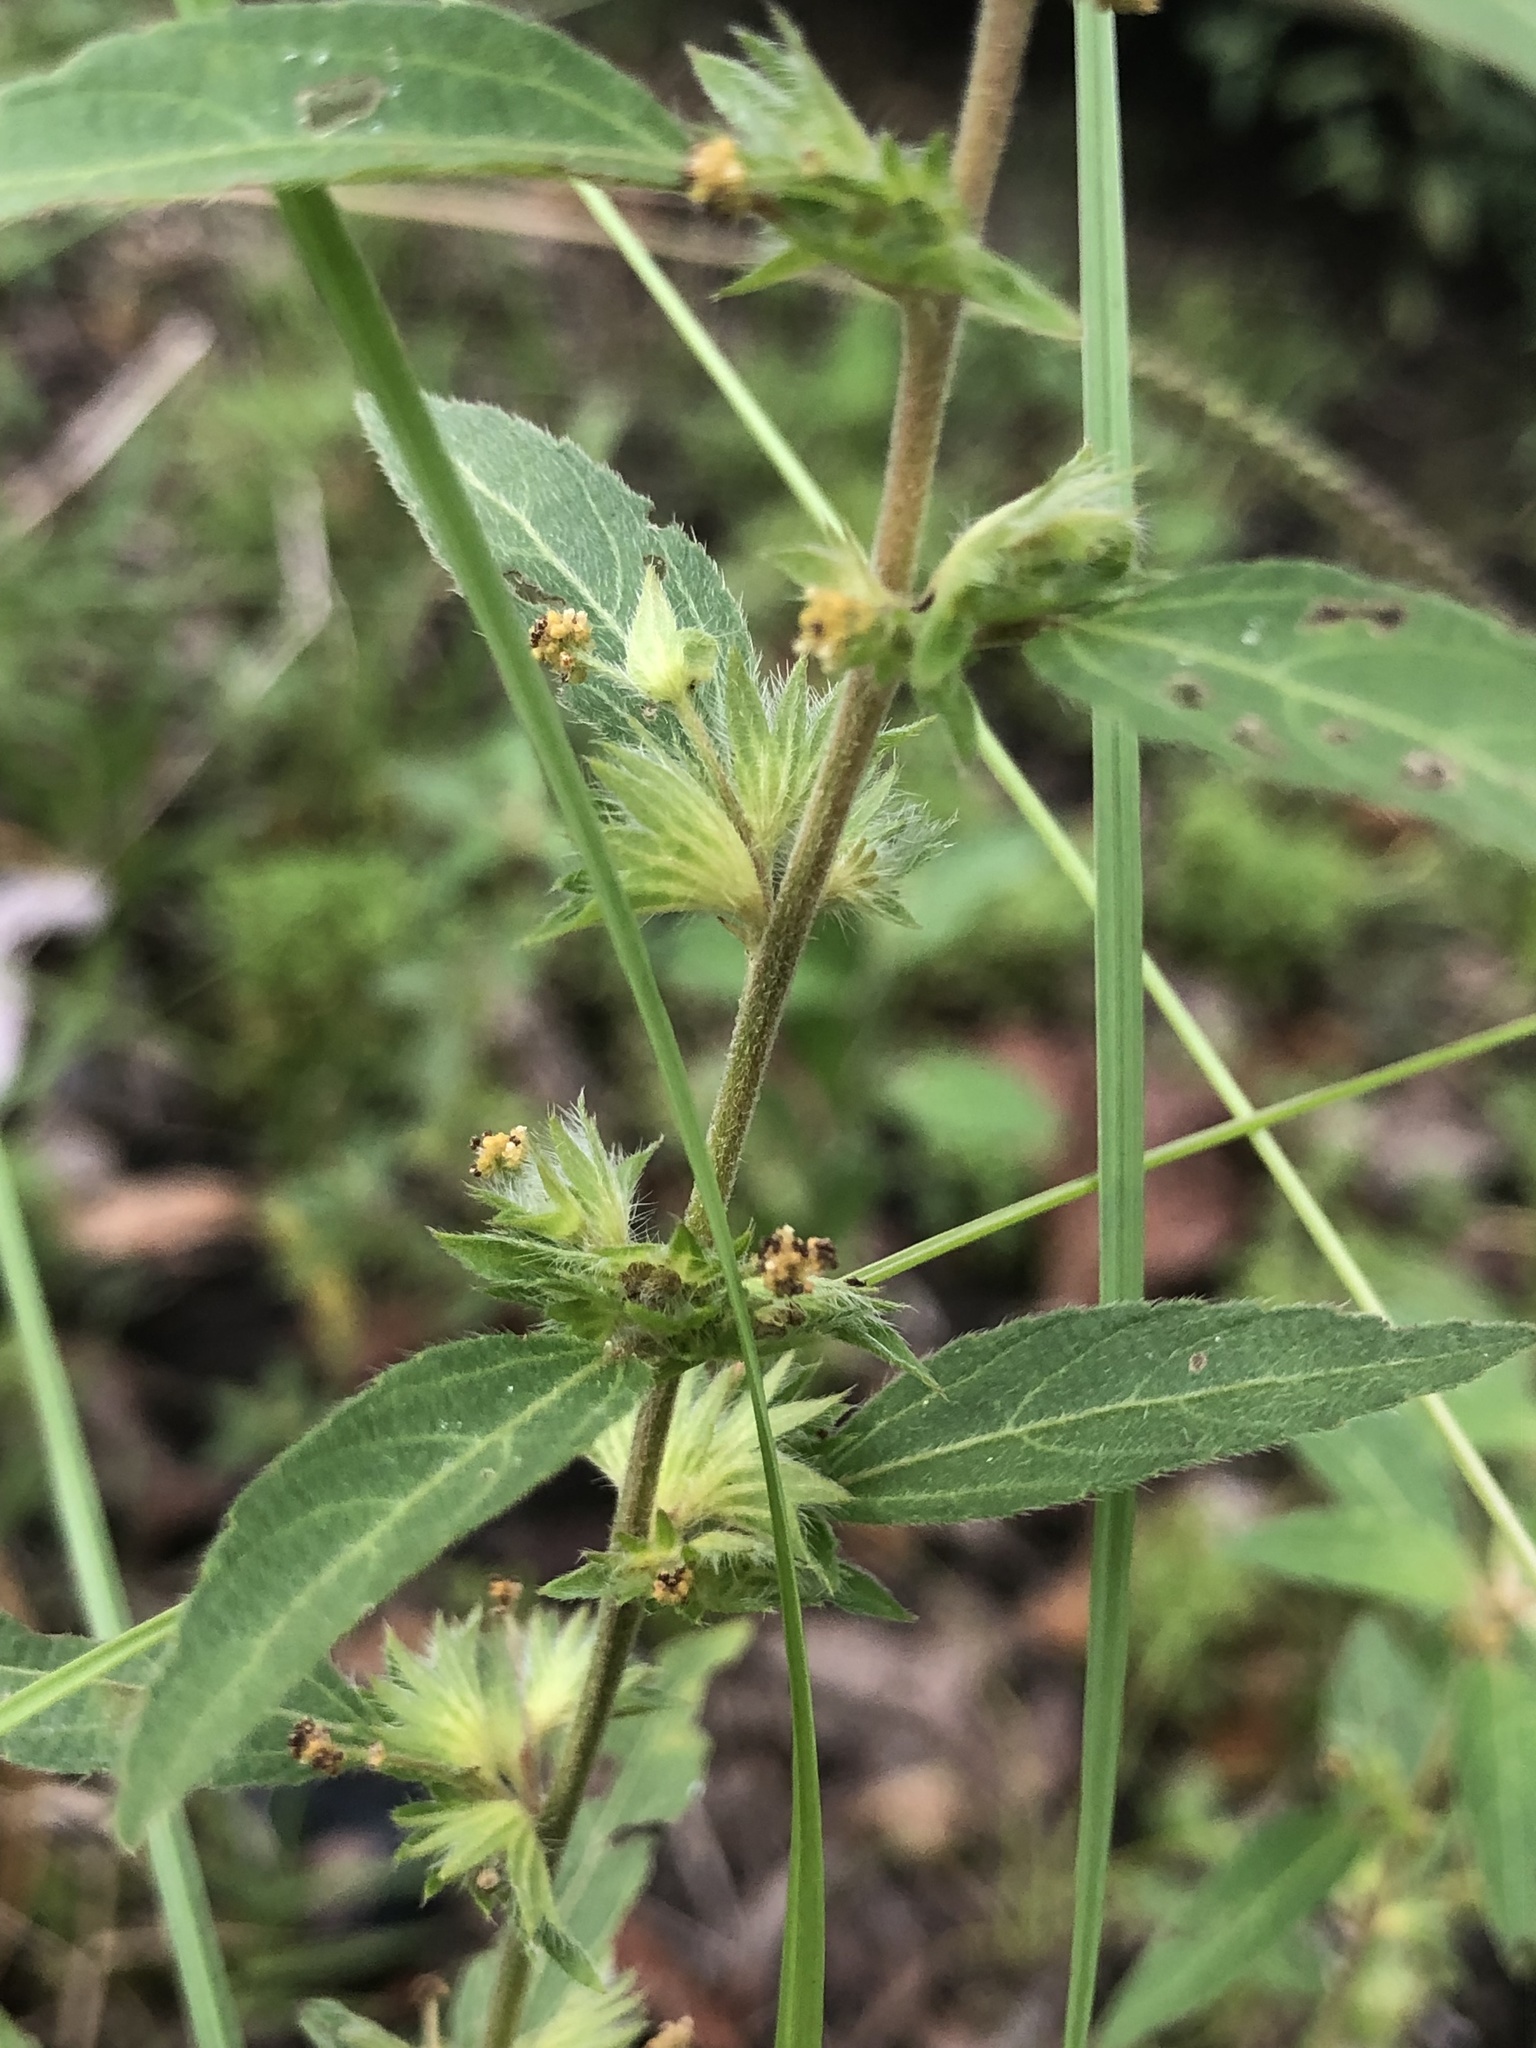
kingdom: Plantae
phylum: Tracheophyta
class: Magnoliopsida
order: Malpighiales
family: Euphorbiaceae
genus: Acalypha
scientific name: Acalypha virginica
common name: Virginia copperleaf
